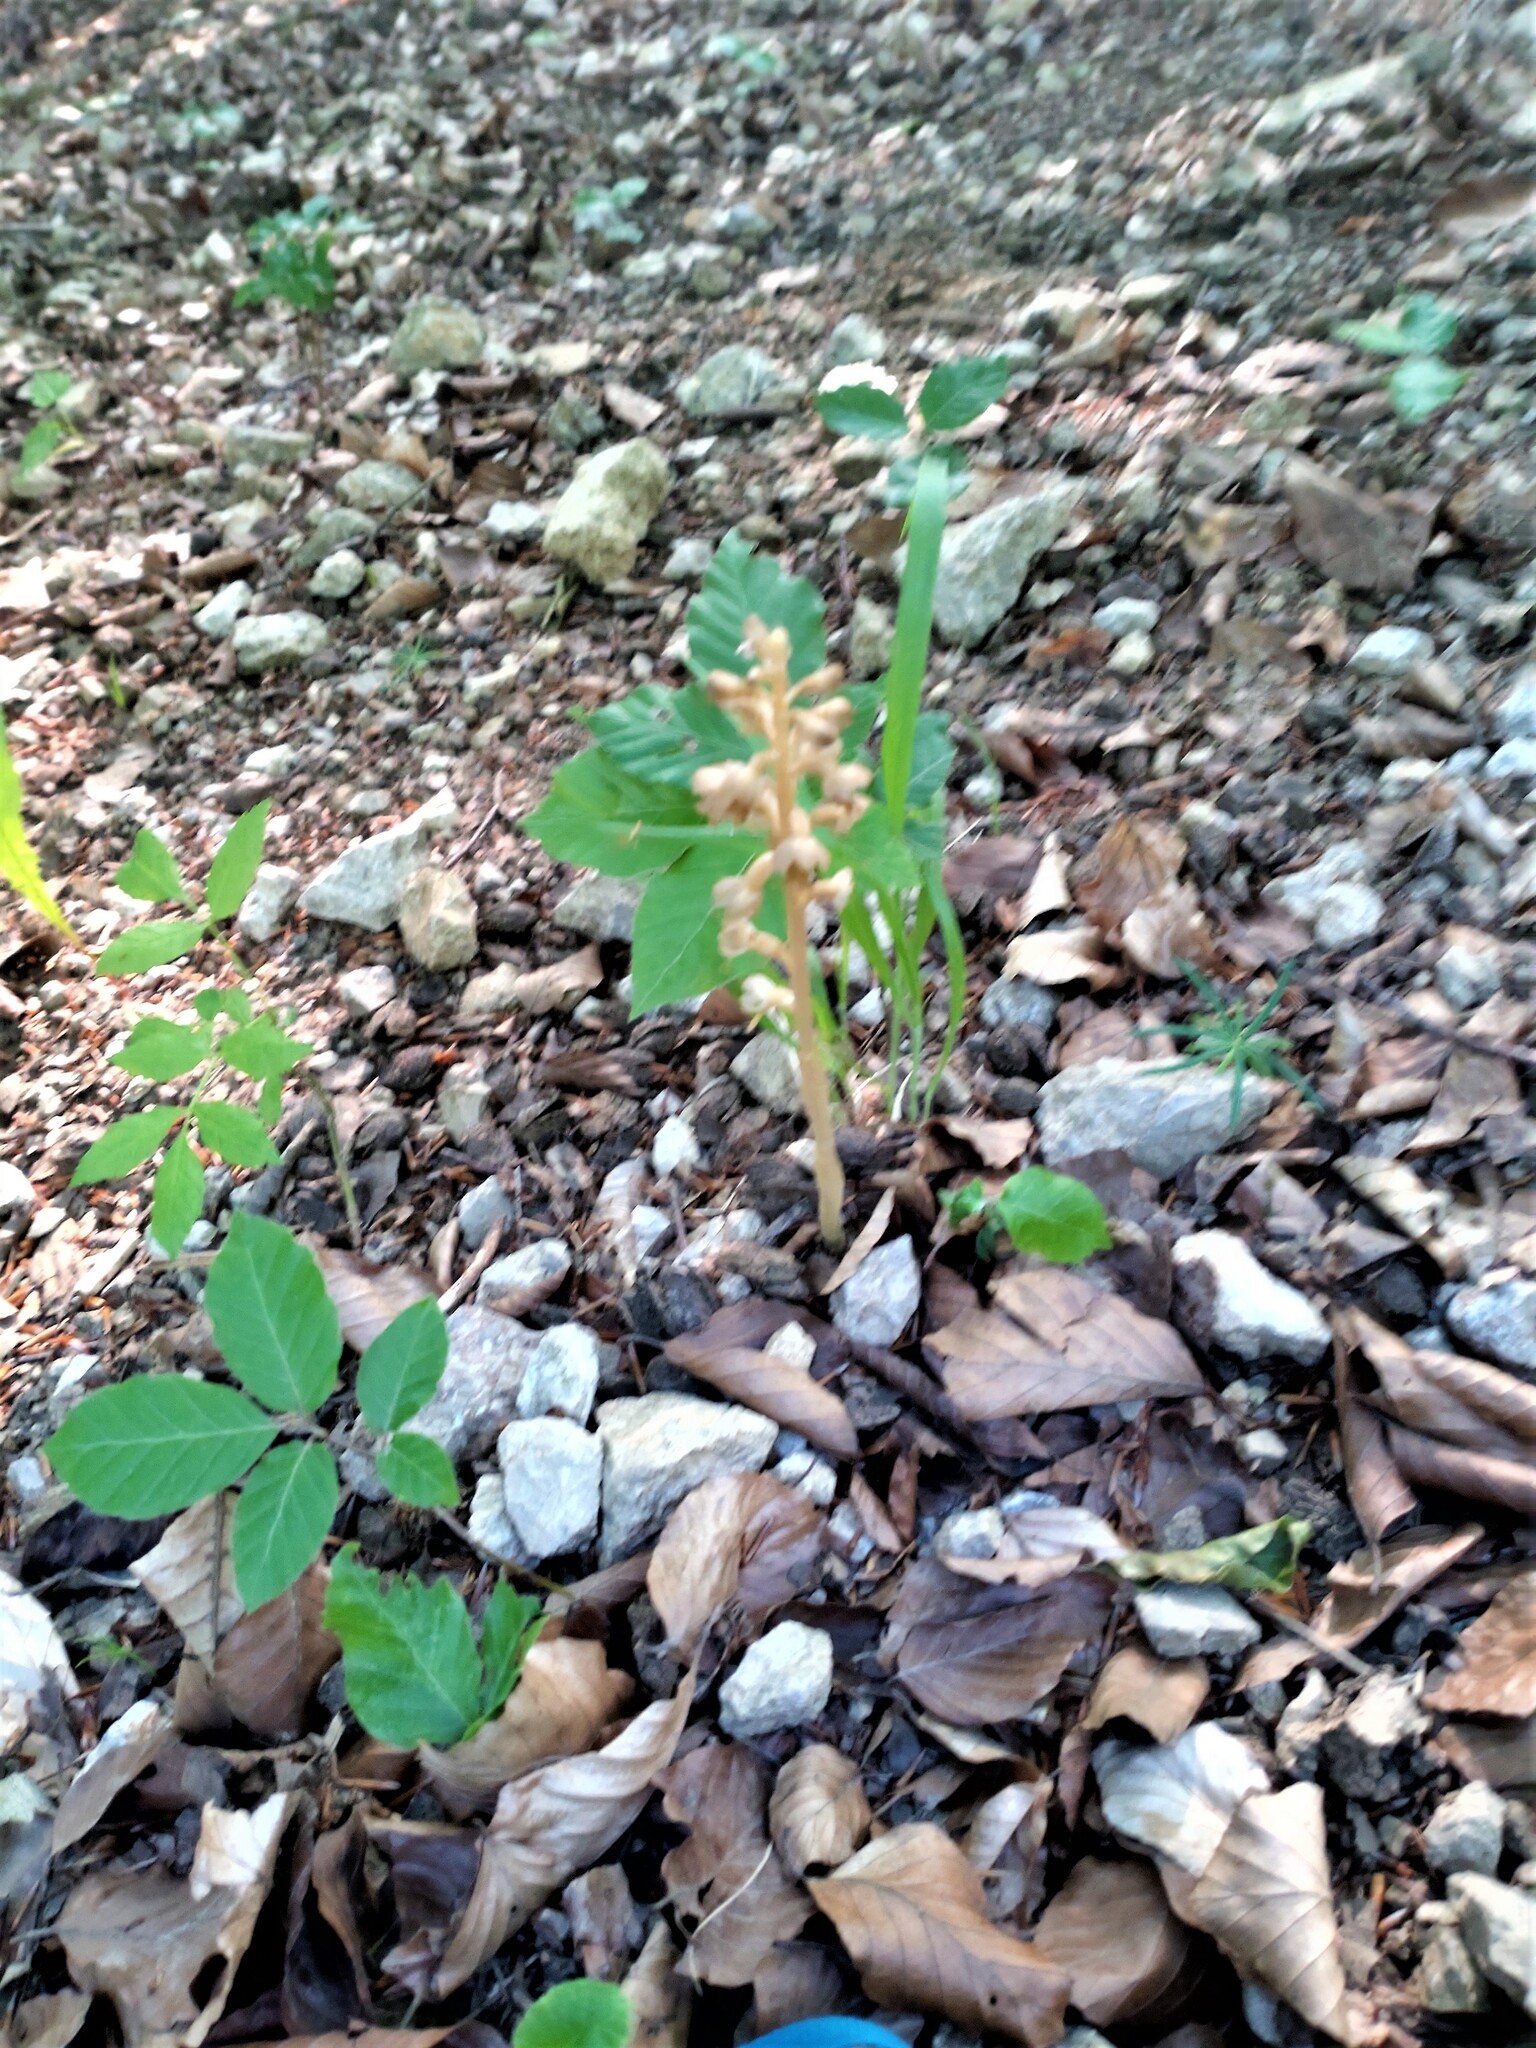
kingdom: Plantae
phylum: Tracheophyta
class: Liliopsida
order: Asparagales
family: Orchidaceae
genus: Neottia
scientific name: Neottia nidus-avis
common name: Bird's-nest orchid
